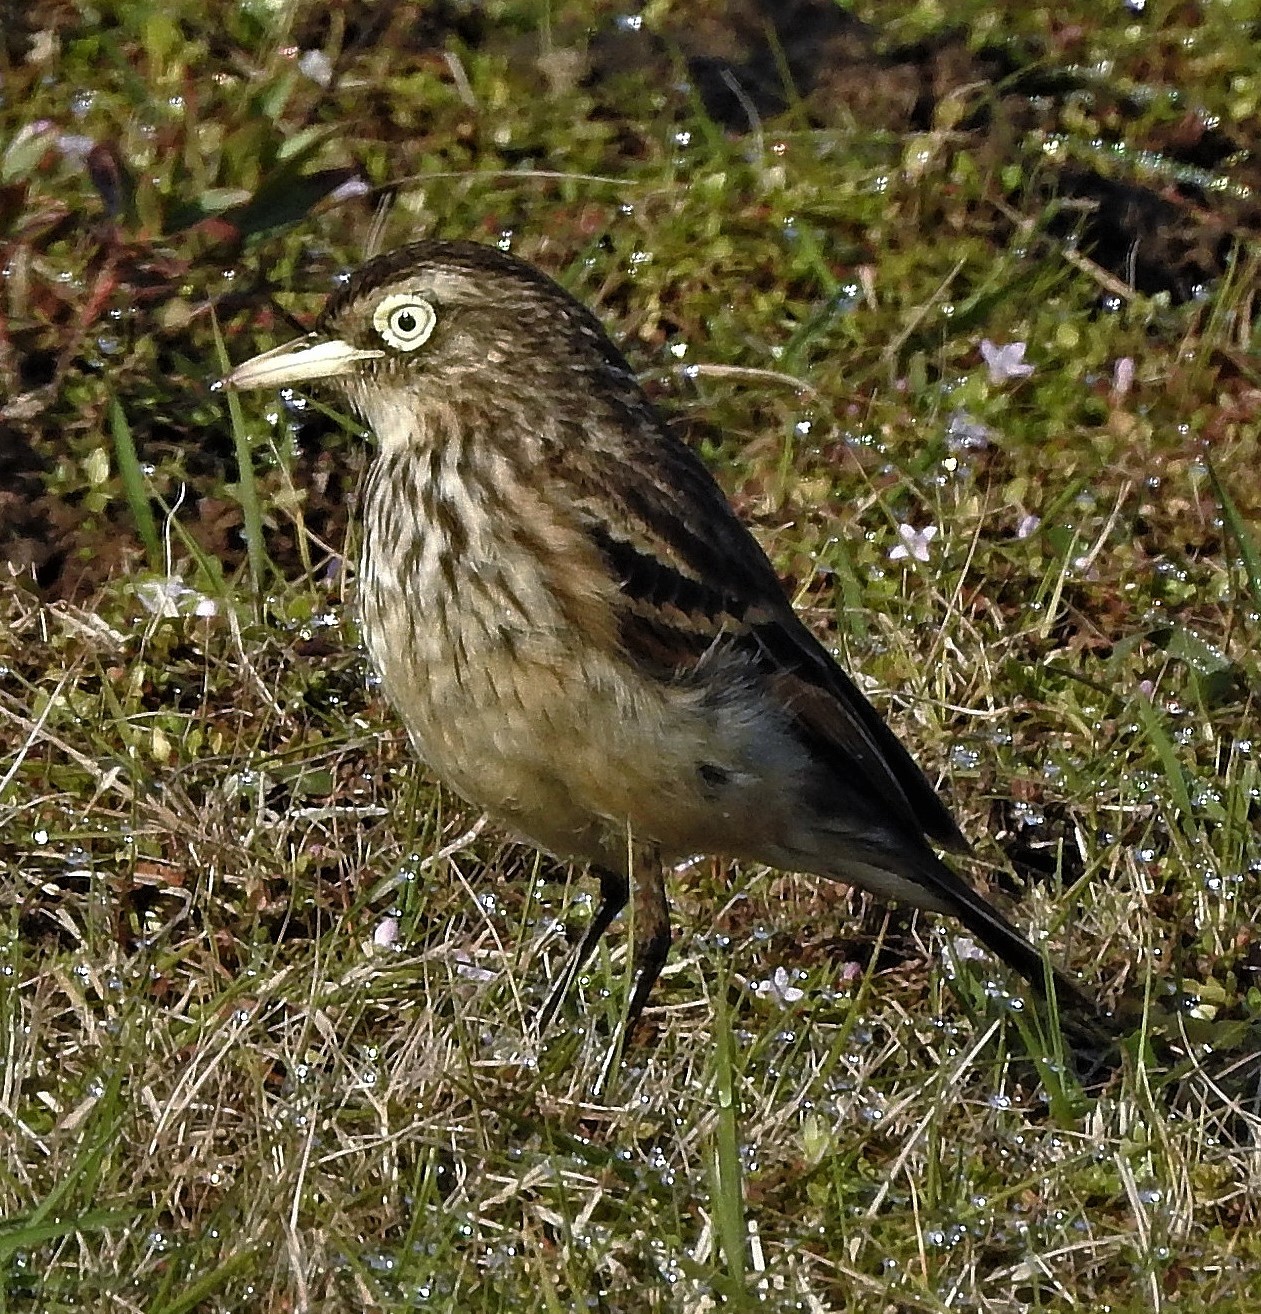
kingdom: Animalia
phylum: Chordata
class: Aves
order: Passeriformes
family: Tyrannidae
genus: Hymenops
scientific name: Hymenops perspicillatus
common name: Spectacled tyrant
